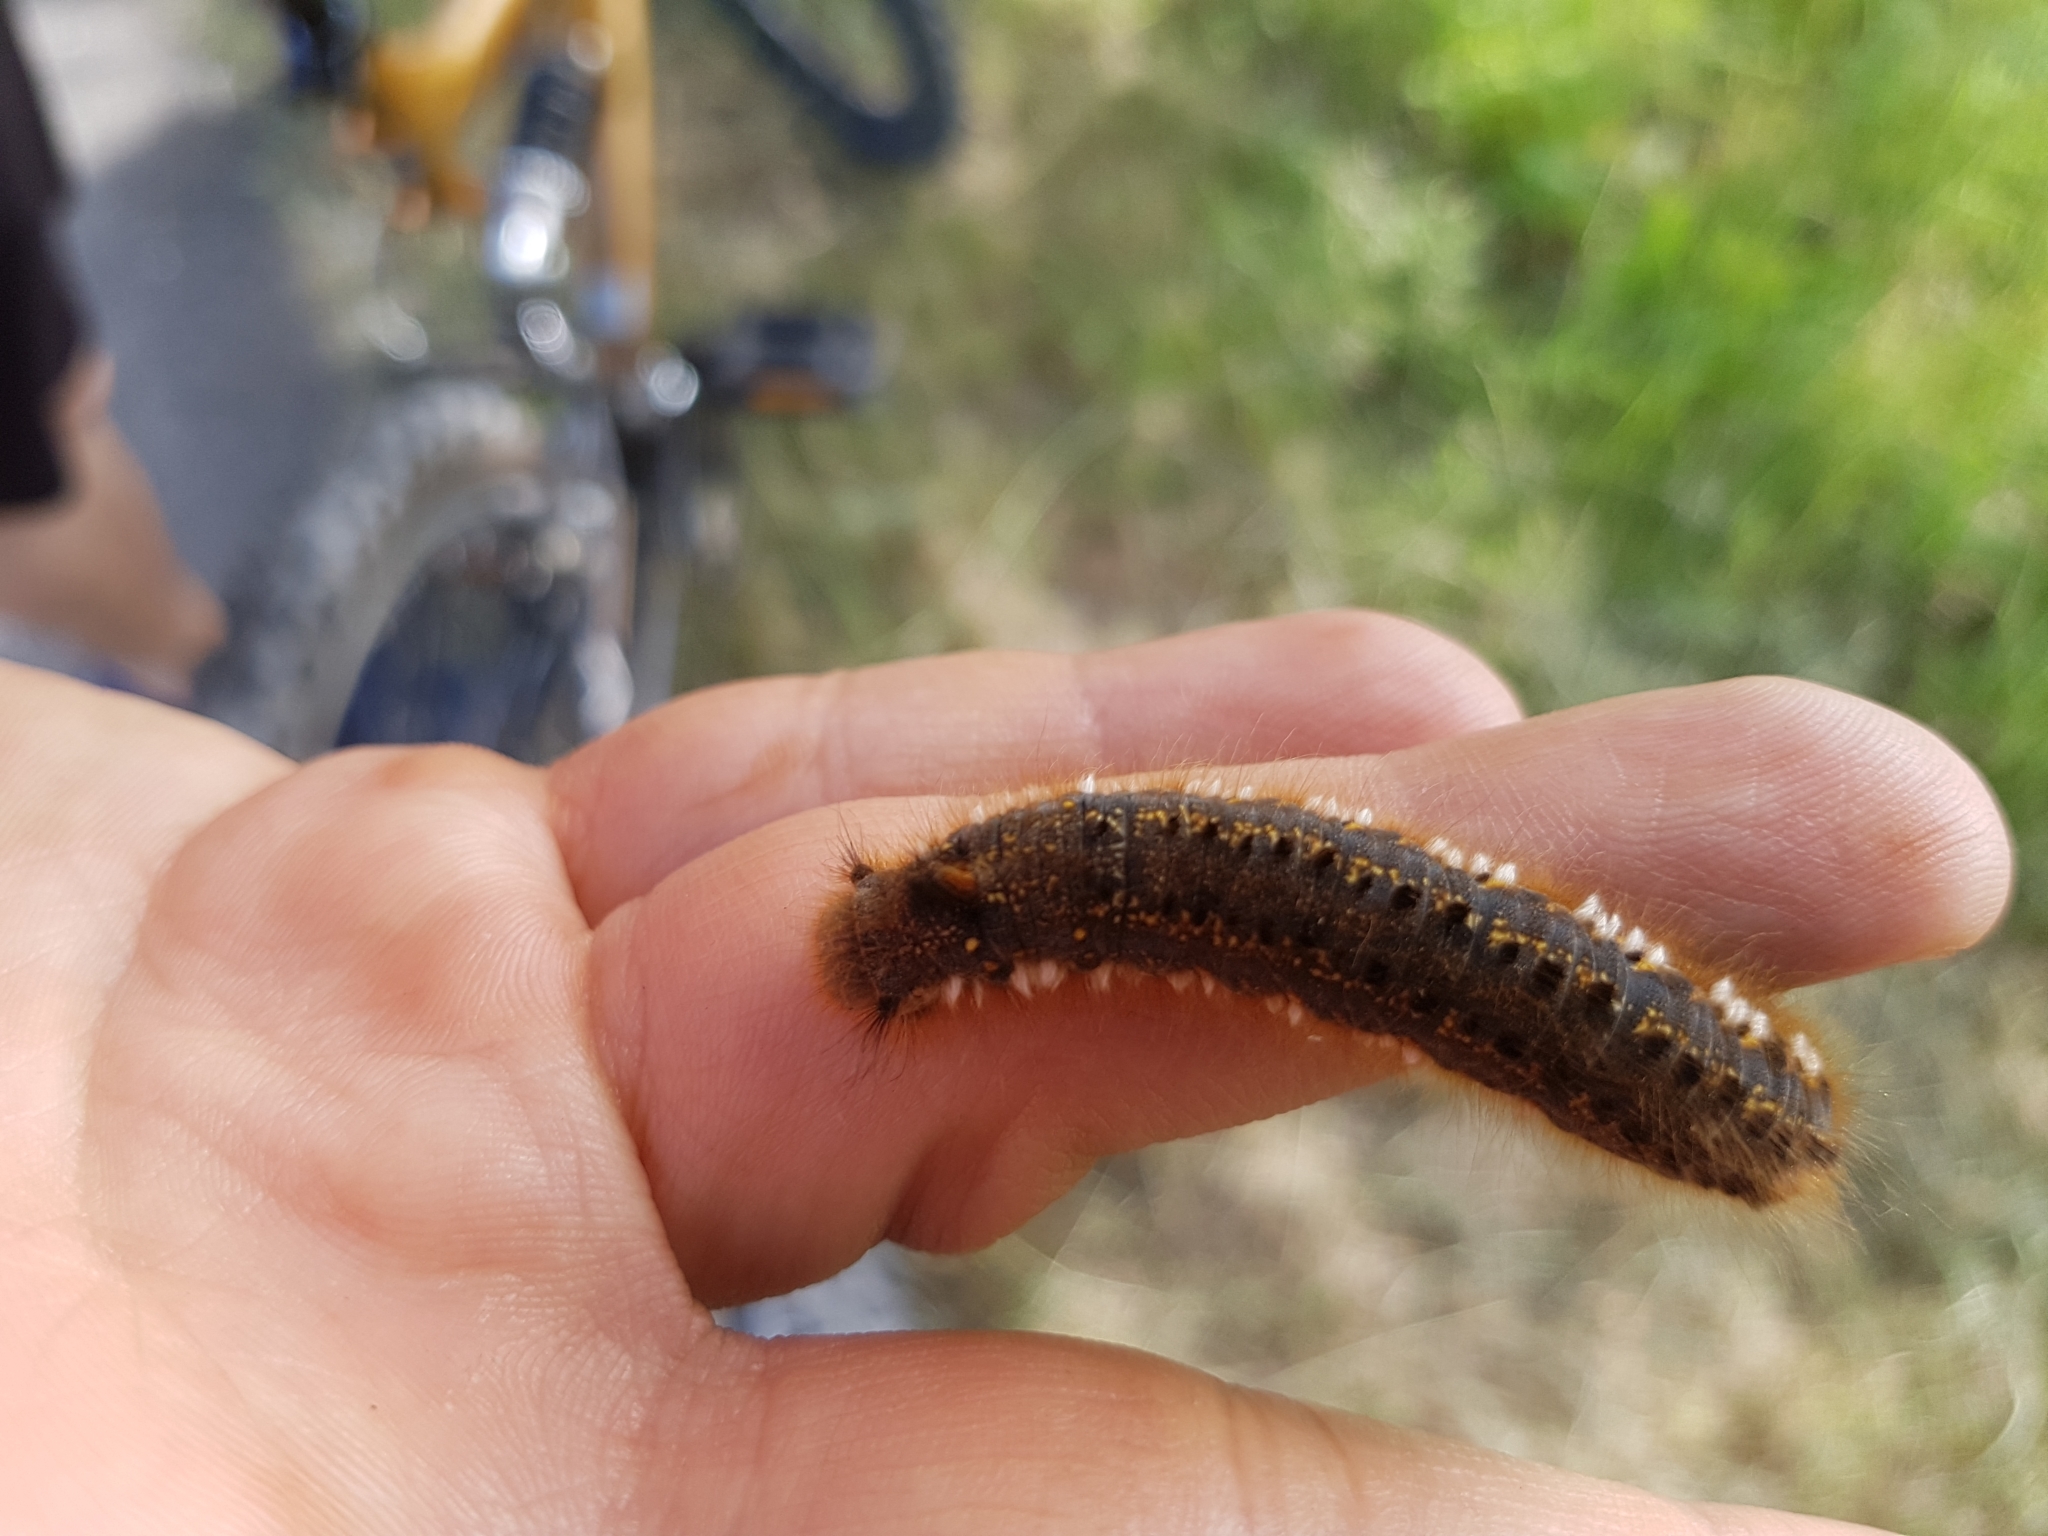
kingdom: Animalia
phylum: Arthropoda
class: Insecta
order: Lepidoptera
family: Lasiocampidae
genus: Euthrix
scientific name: Euthrix potatoria
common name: Drinker
